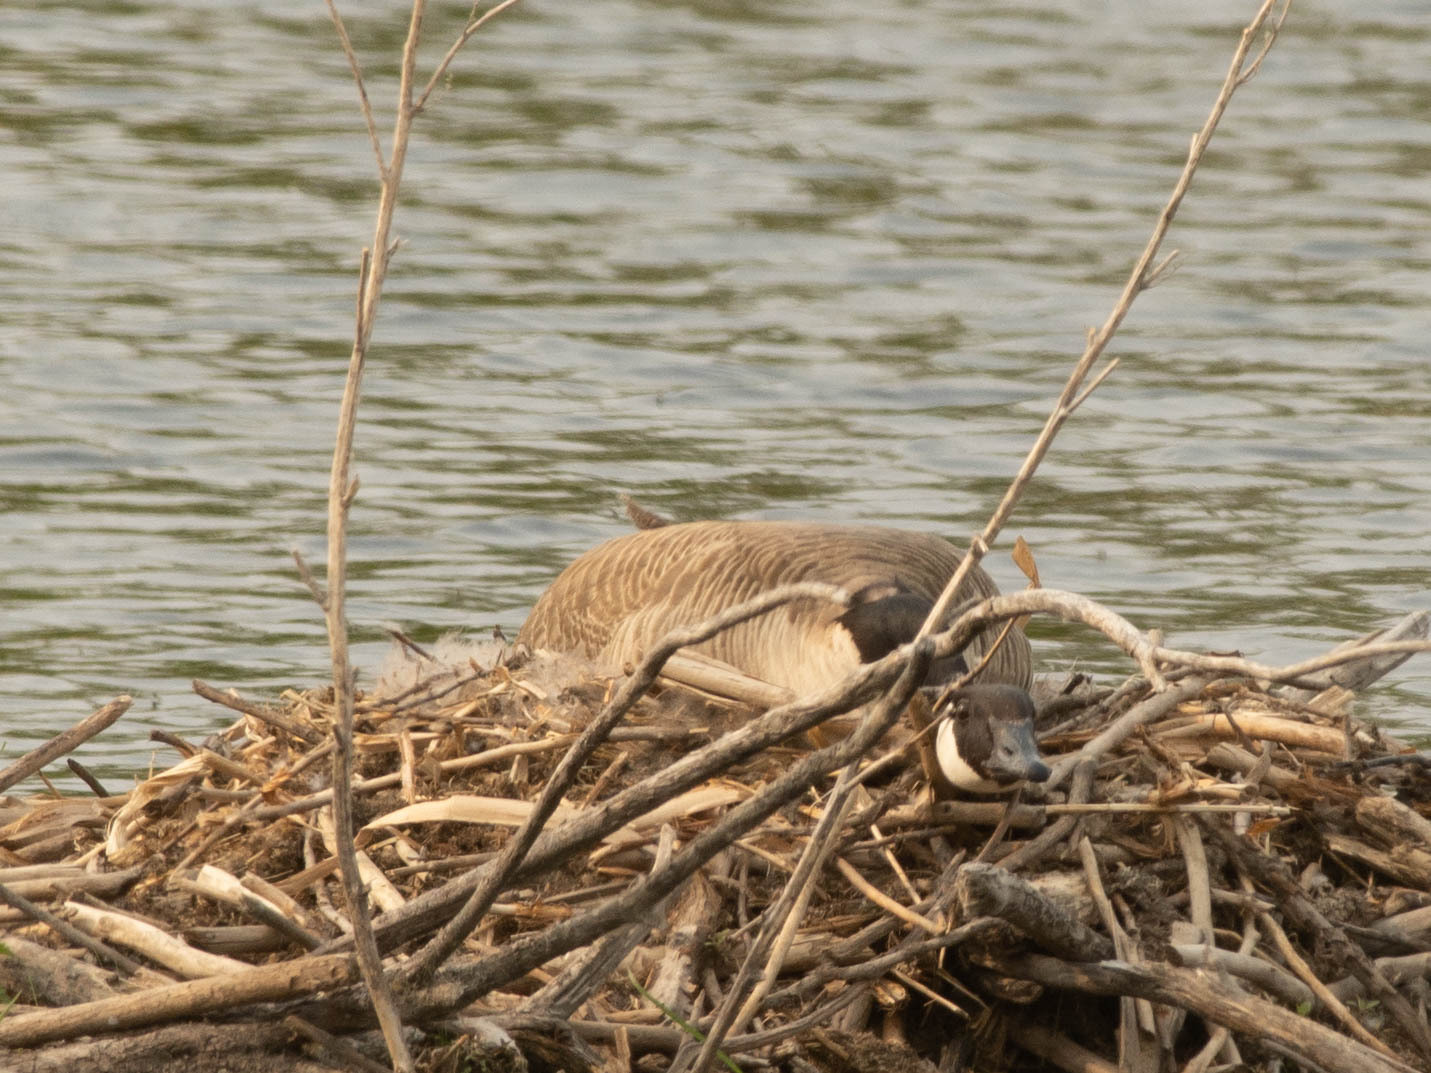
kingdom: Animalia
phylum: Chordata
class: Aves
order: Anseriformes
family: Anatidae
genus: Branta
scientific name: Branta canadensis
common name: Canada goose
